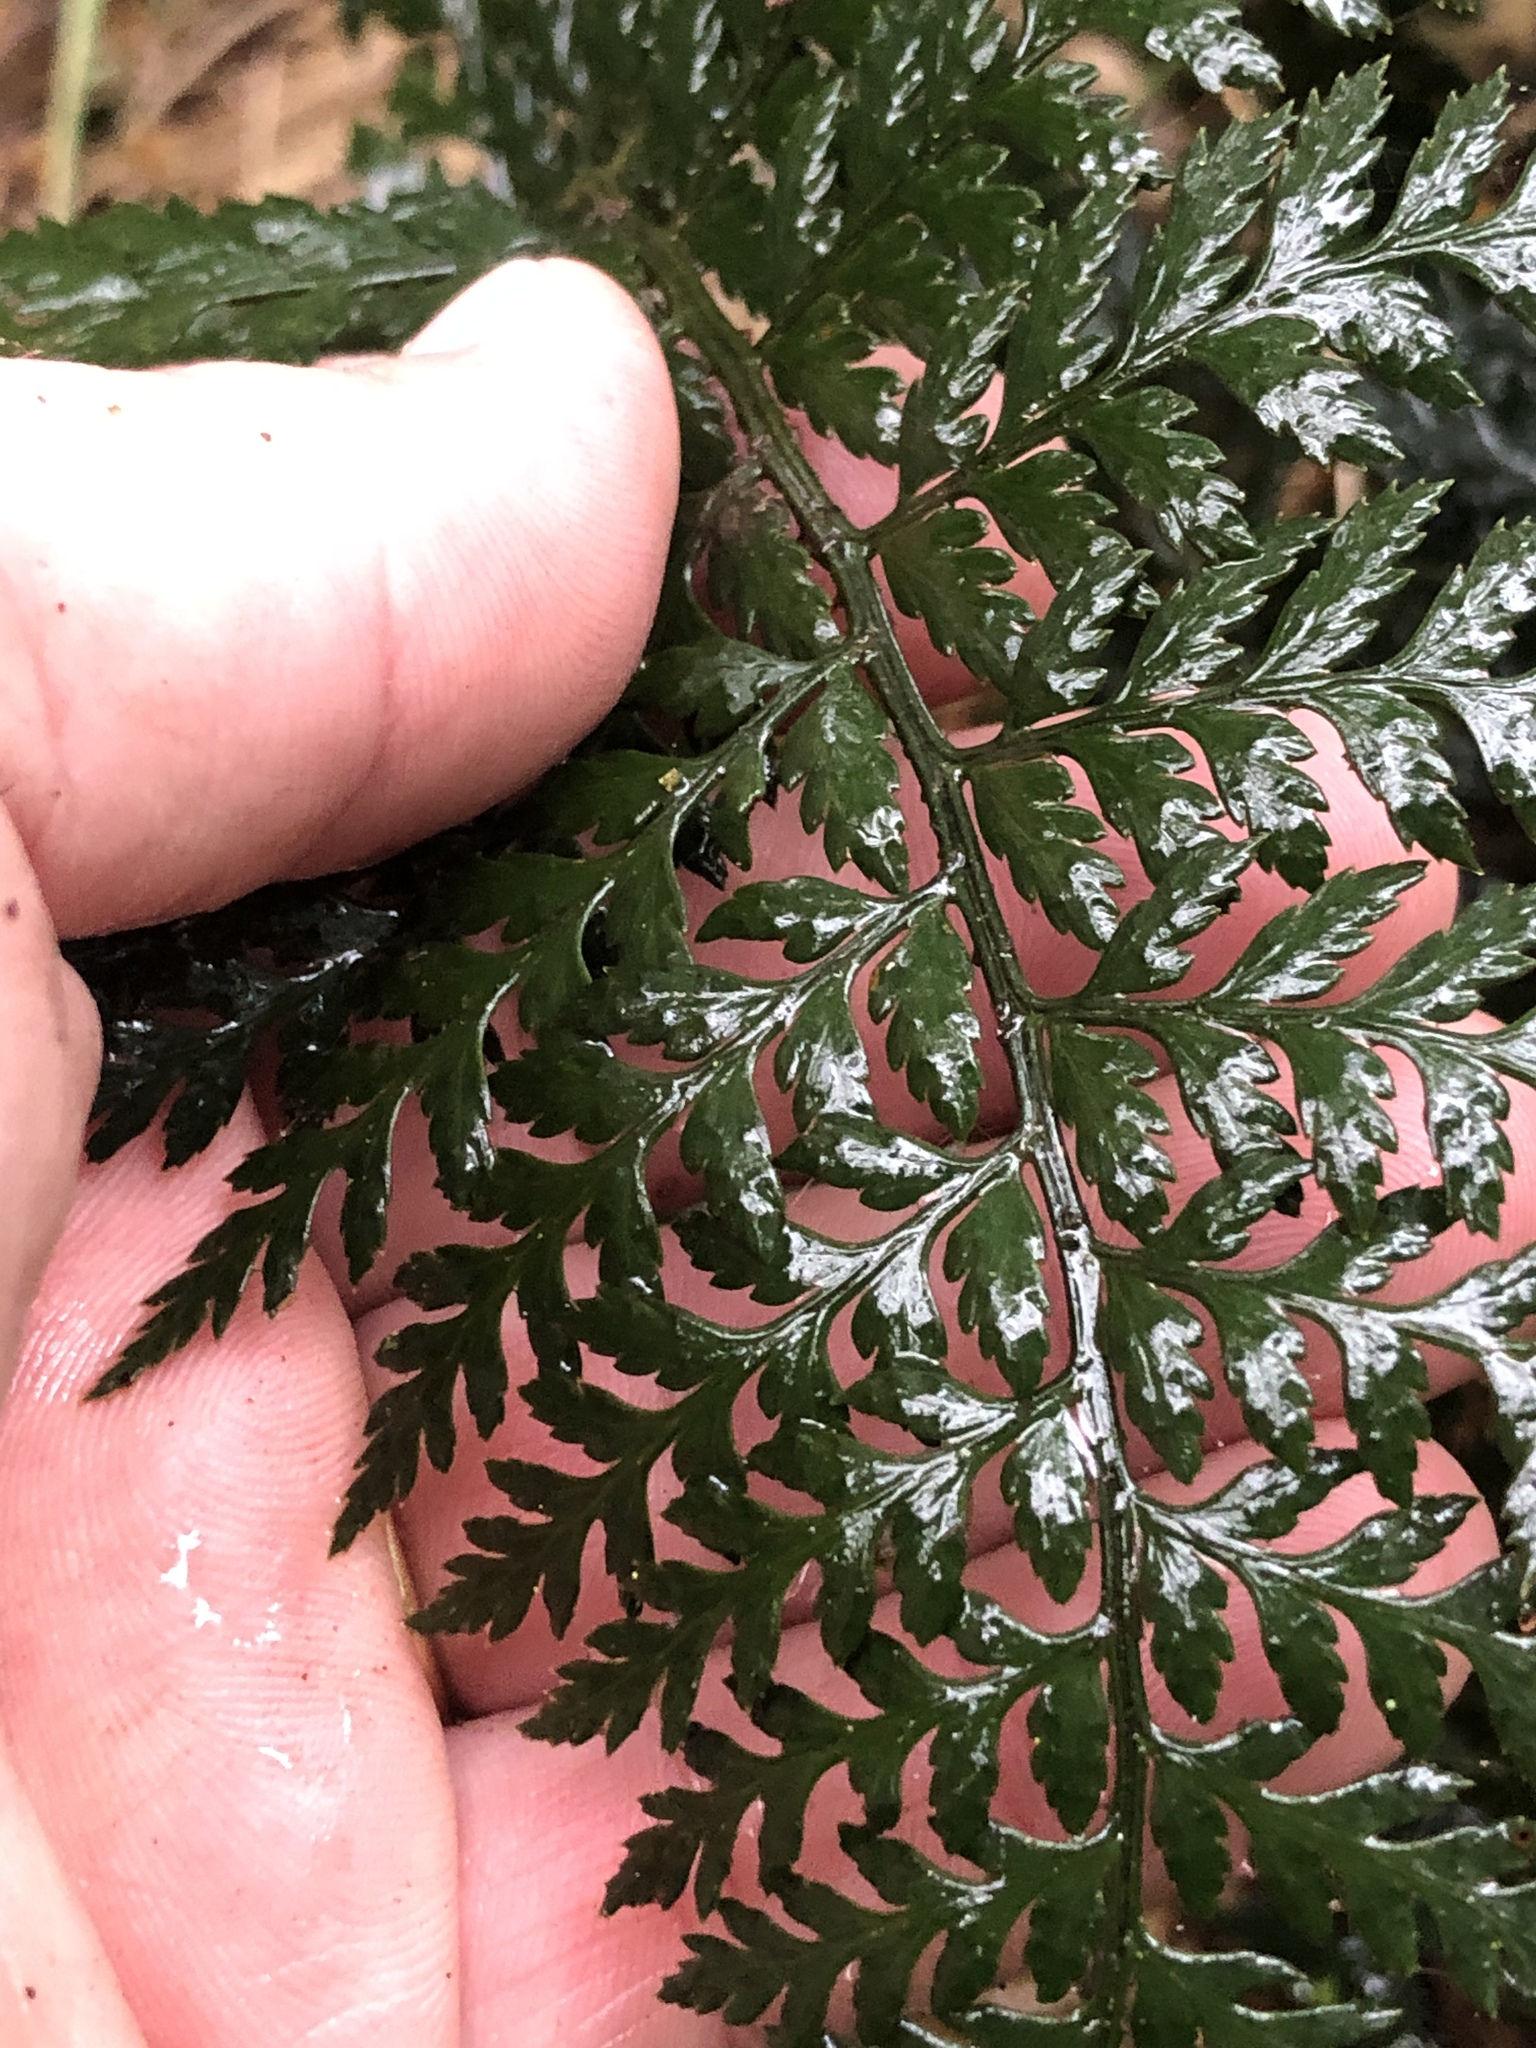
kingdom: Plantae
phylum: Tracheophyta
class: Polypodiopsida
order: Polypodiales
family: Dryopteridaceae
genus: Polystichum
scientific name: Polystichum oculatum
